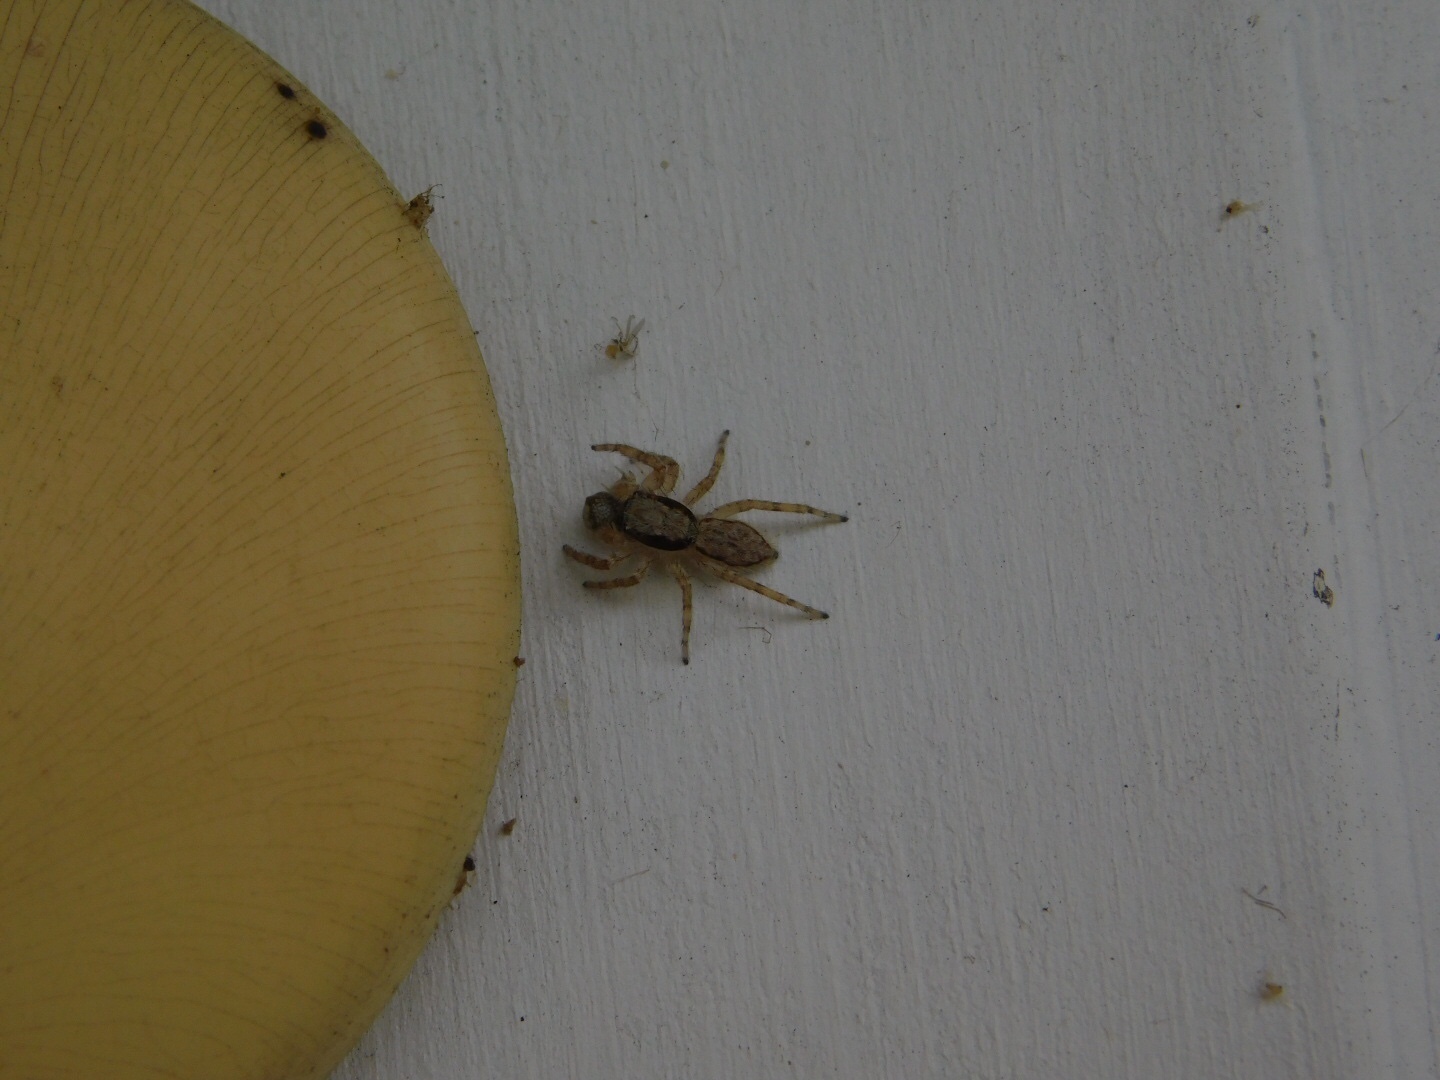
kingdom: Animalia
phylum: Arthropoda
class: Arachnida
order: Araneae
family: Salticidae
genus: Menemerus
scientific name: Menemerus bivittatus
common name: Gray wall jumper
